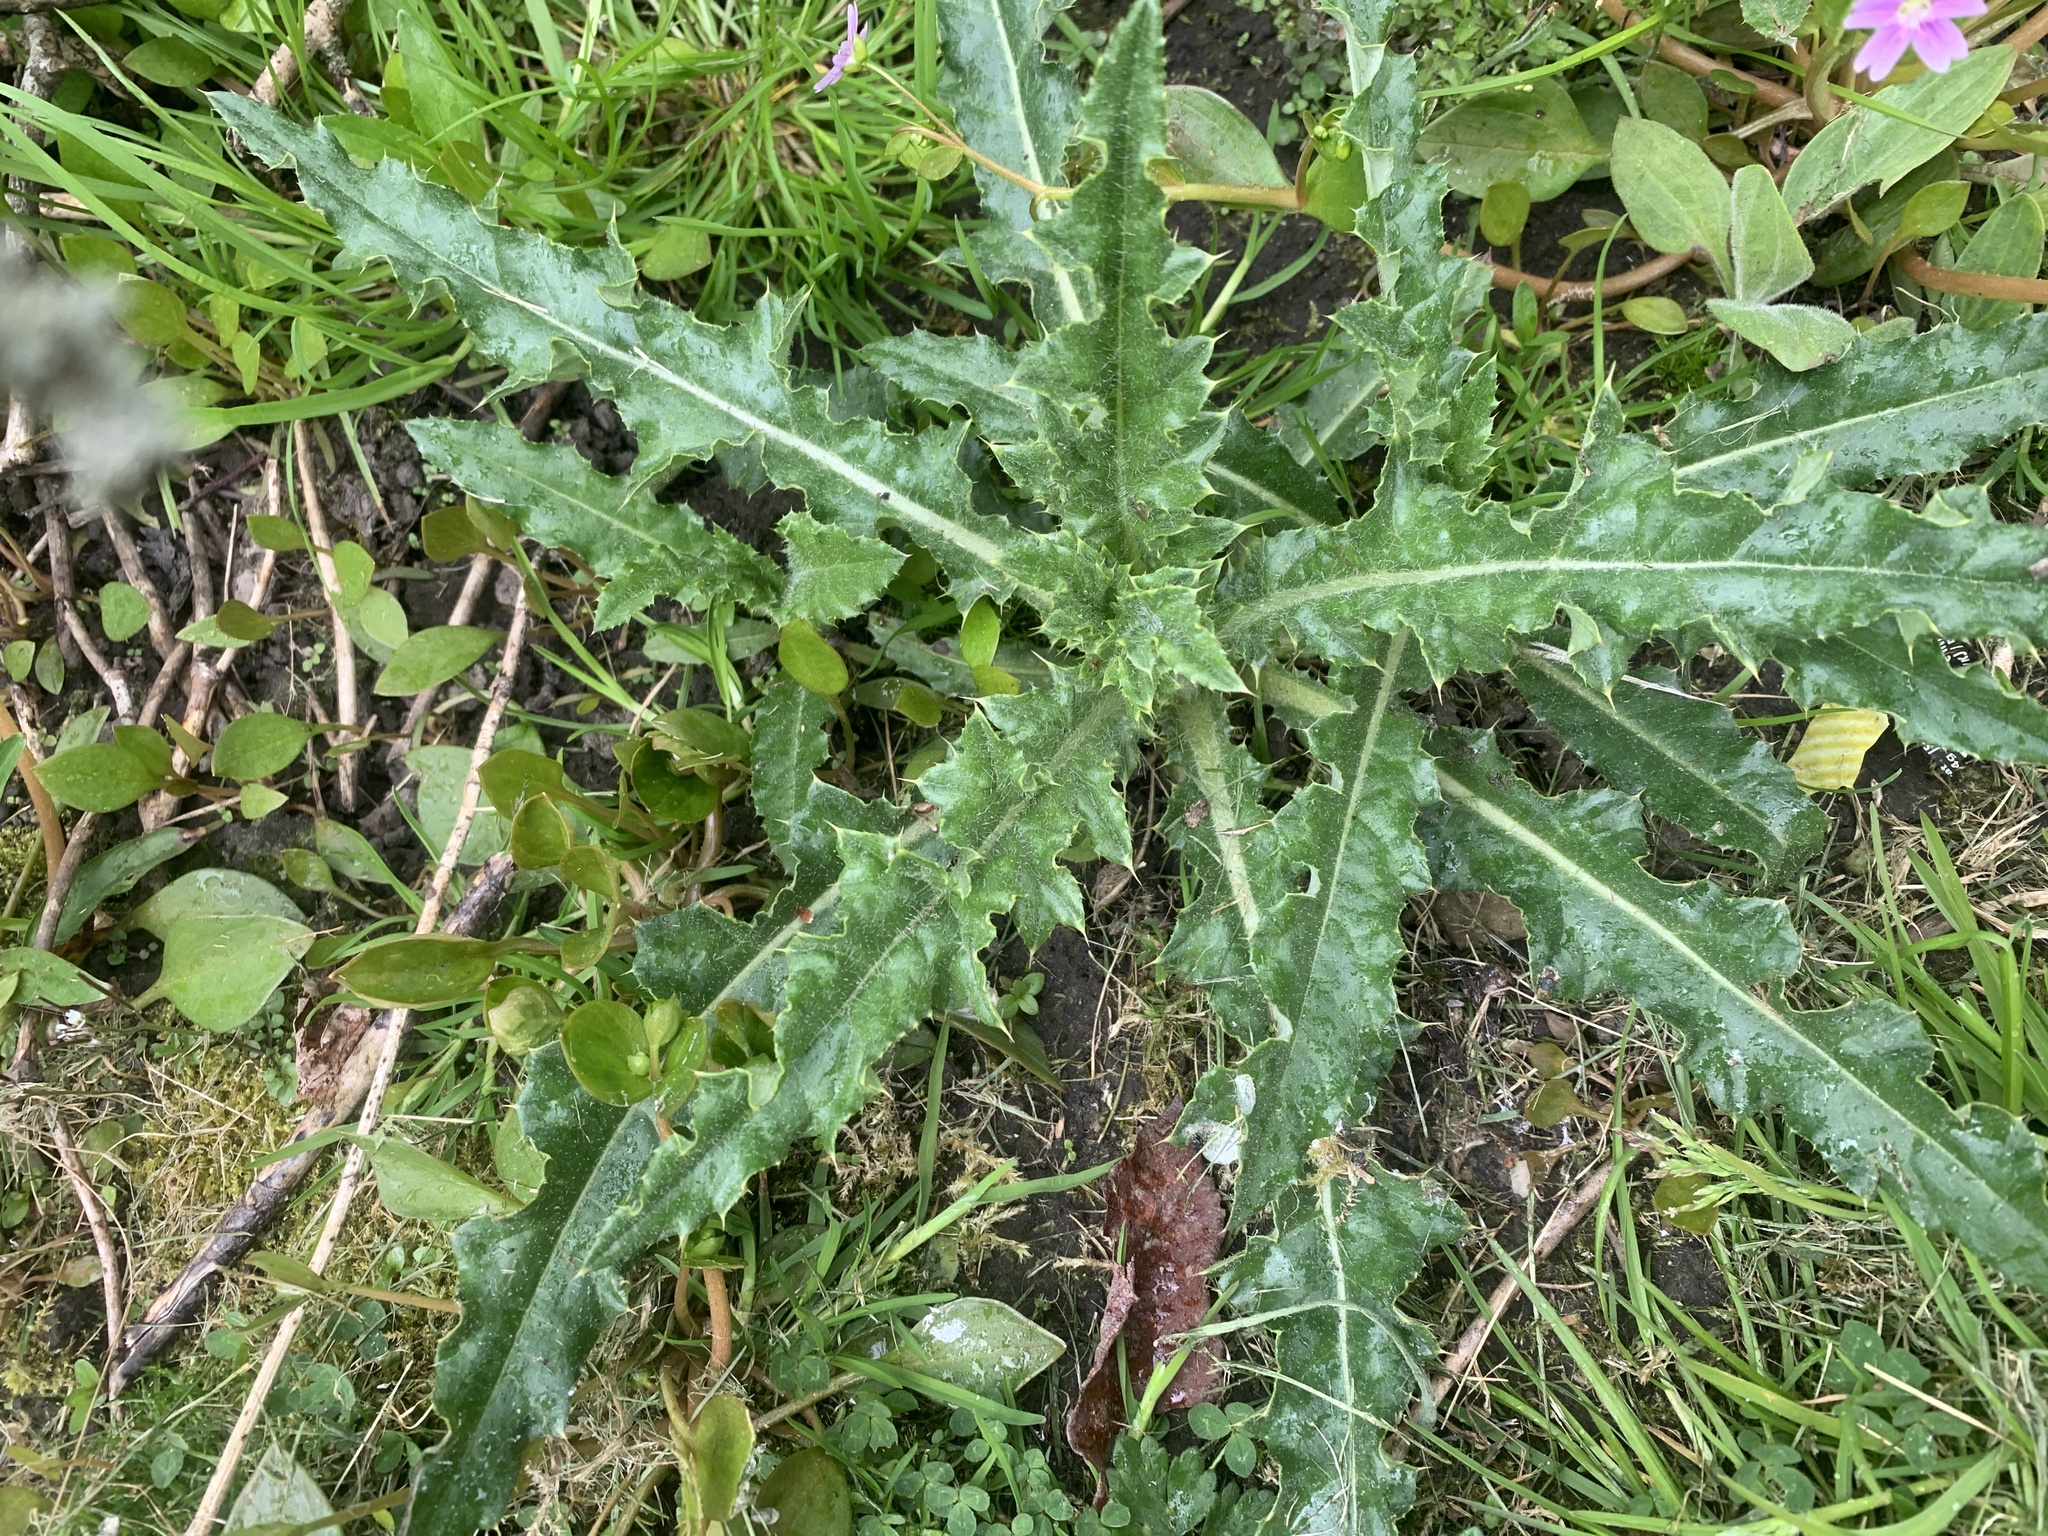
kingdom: Plantae
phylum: Tracheophyta
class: Magnoliopsida
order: Asterales
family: Asteraceae
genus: Cirsium
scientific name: Cirsium arvense
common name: Creeping thistle
